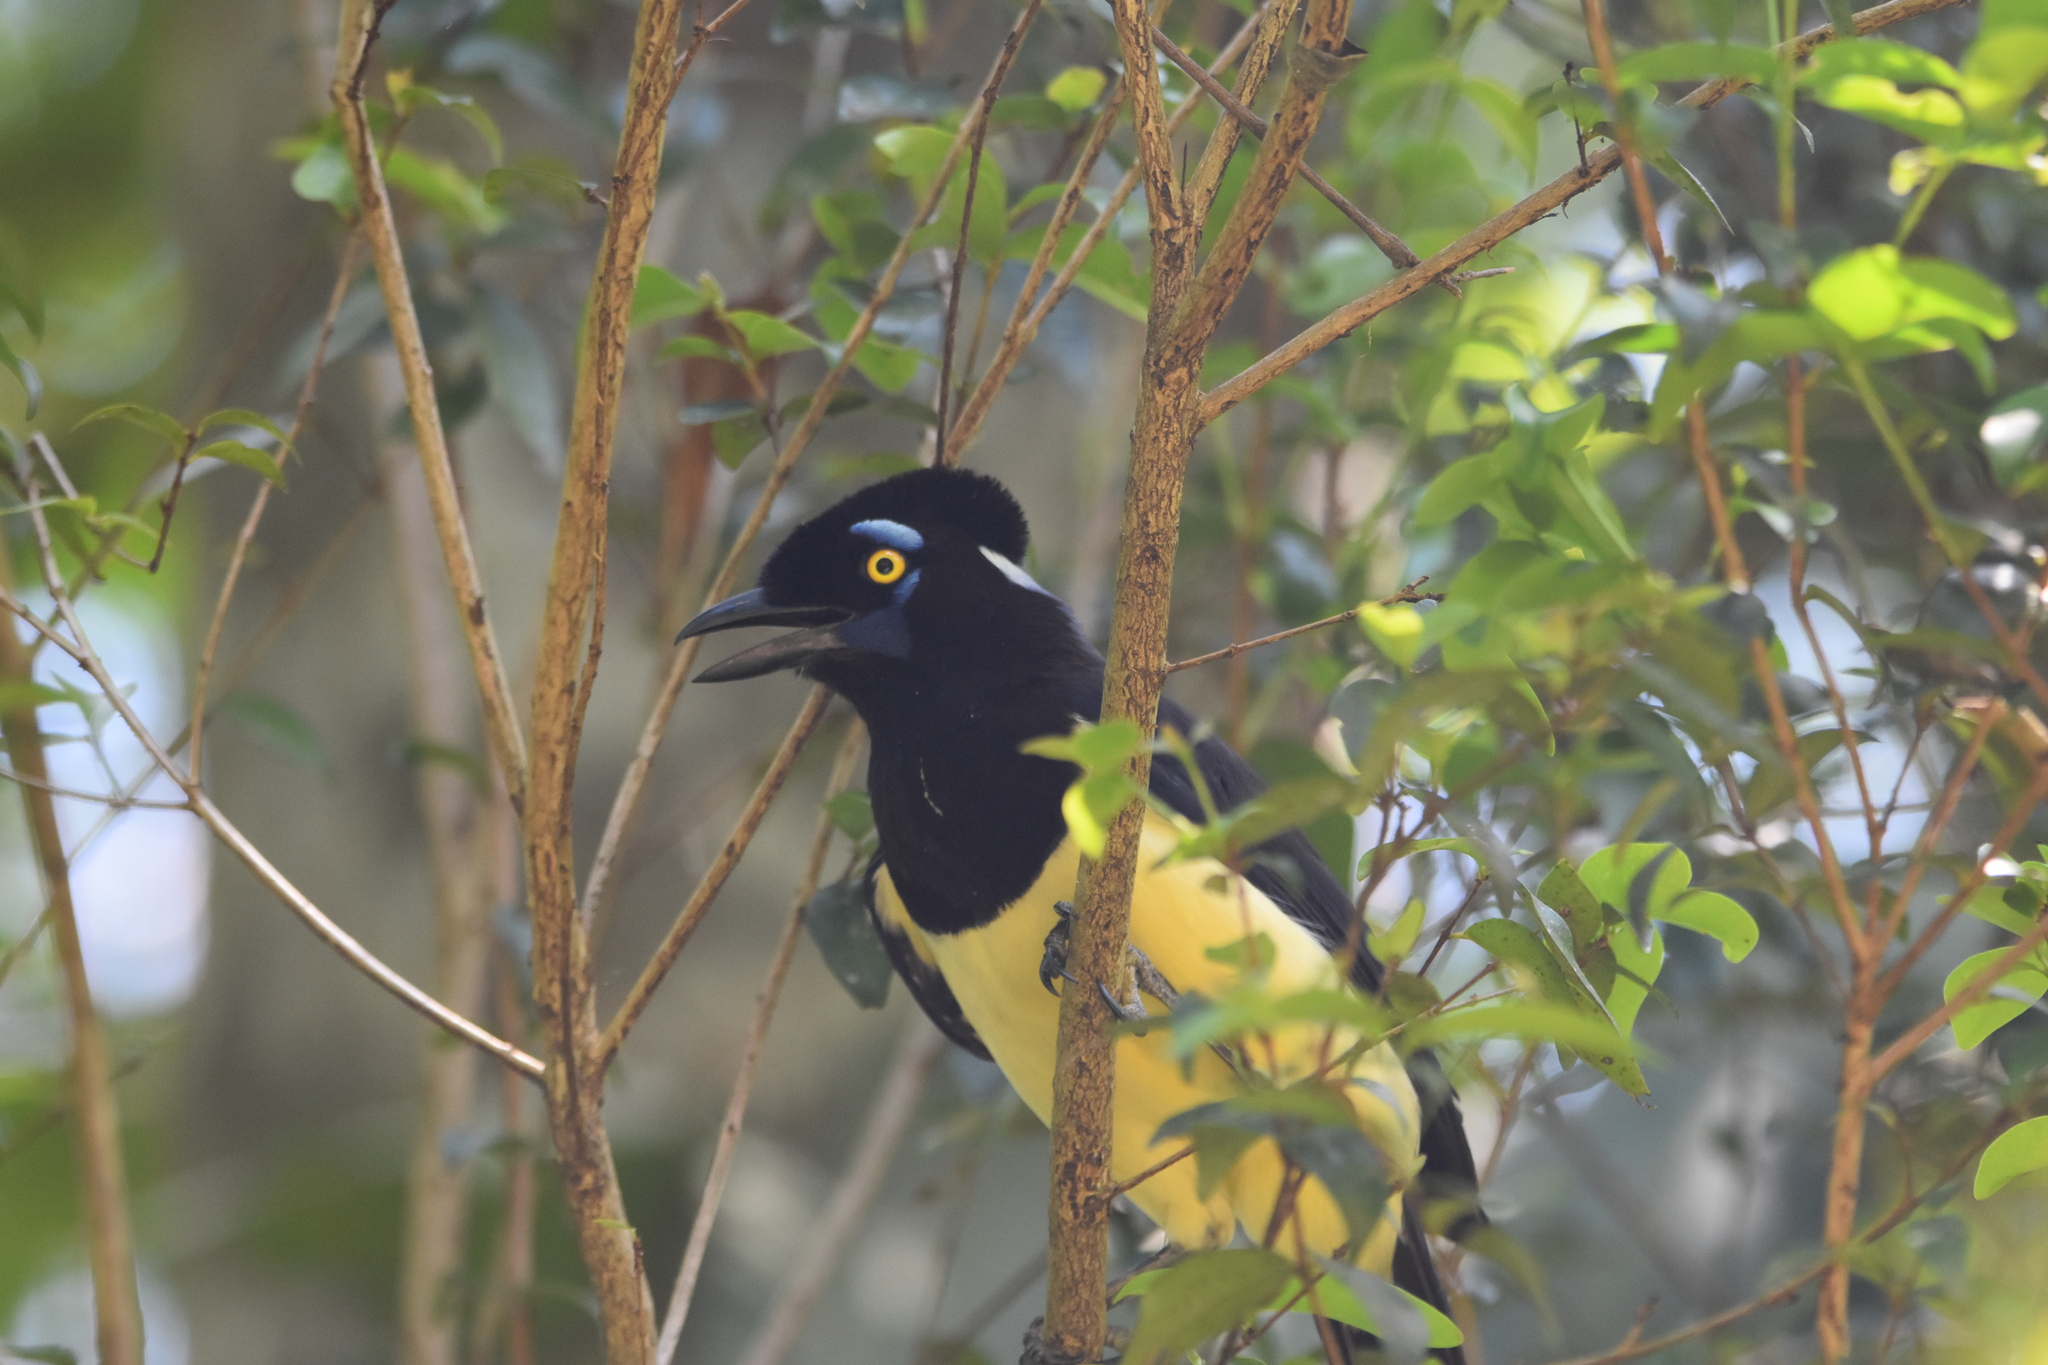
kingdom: Animalia
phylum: Chordata
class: Aves
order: Passeriformes
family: Corvidae
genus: Cyanocorax
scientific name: Cyanocorax chrysops
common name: Plush-crested jay
